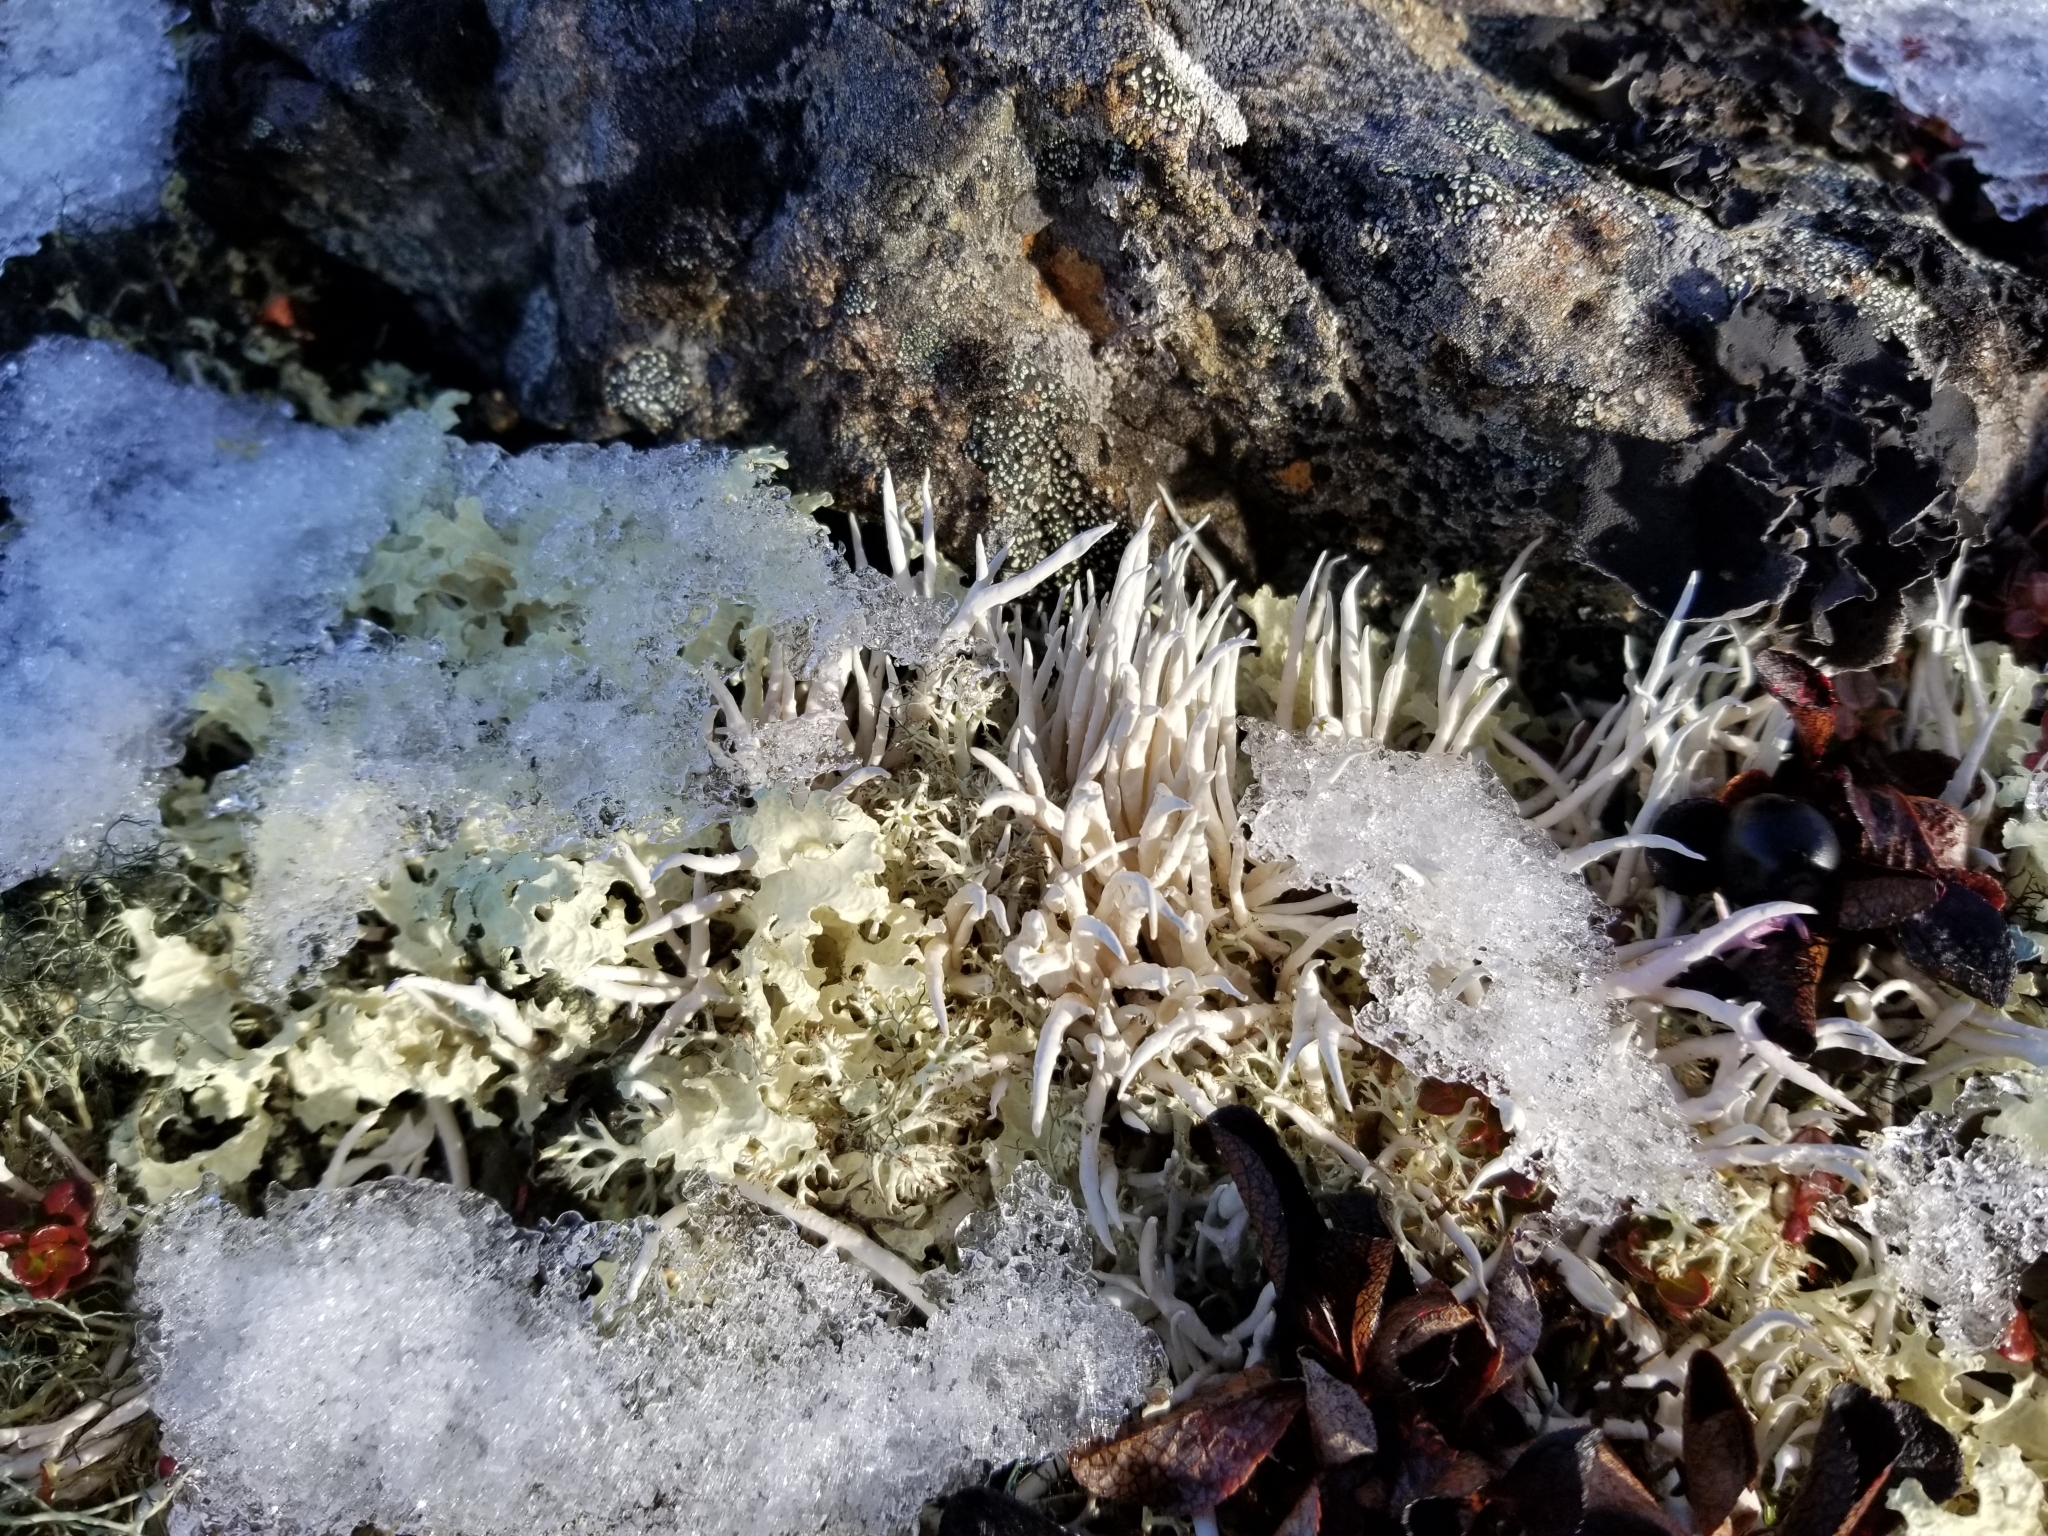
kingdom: Fungi
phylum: Ascomycota
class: Lecanoromycetes
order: Pertusariales
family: Icmadophilaceae
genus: Thamnolia
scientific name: Thamnolia vermicularis
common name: Whiteworm lichen
